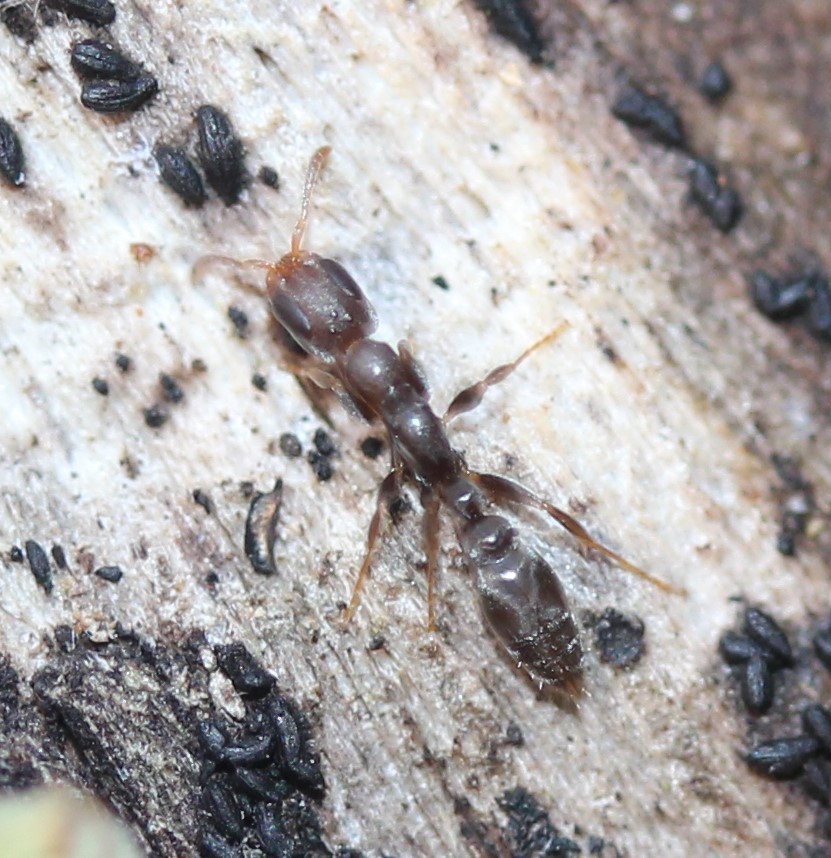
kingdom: Animalia
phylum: Arthropoda
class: Insecta
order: Hymenoptera
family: Formicidae
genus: Pseudomyrmex
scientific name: Pseudomyrmex cubaensis
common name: Ant
